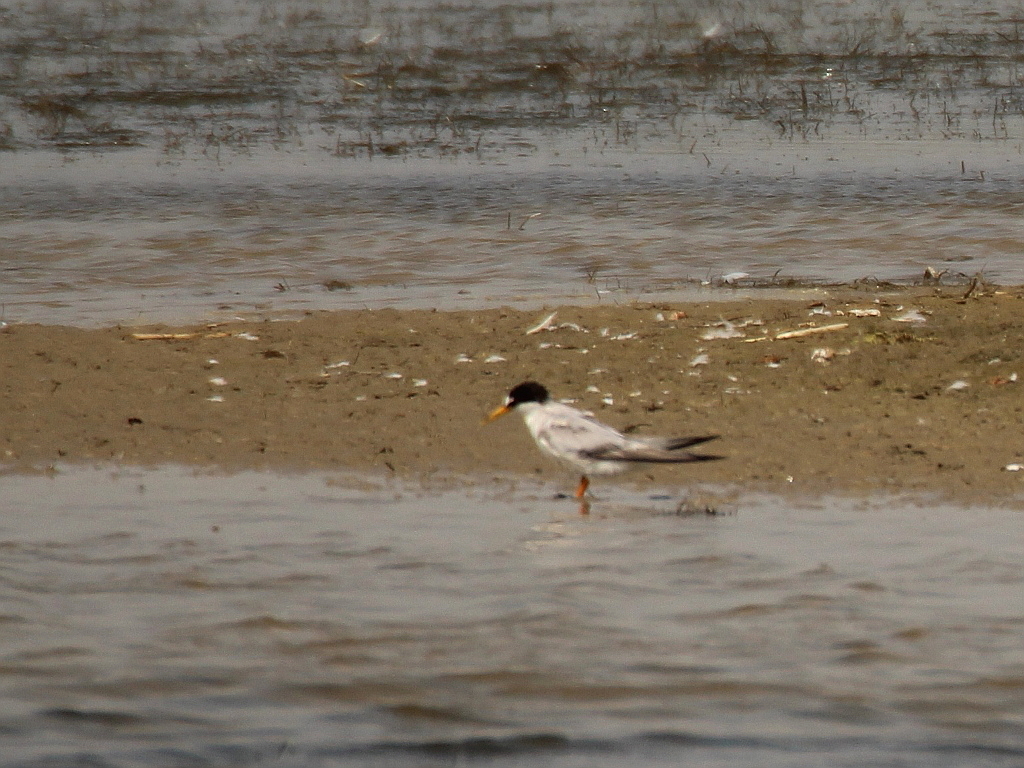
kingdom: Animalia
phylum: Chordata
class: Aves
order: Charadriiformes
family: Laridae
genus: Sternula
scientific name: Sternula albifrons
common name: Little tern
